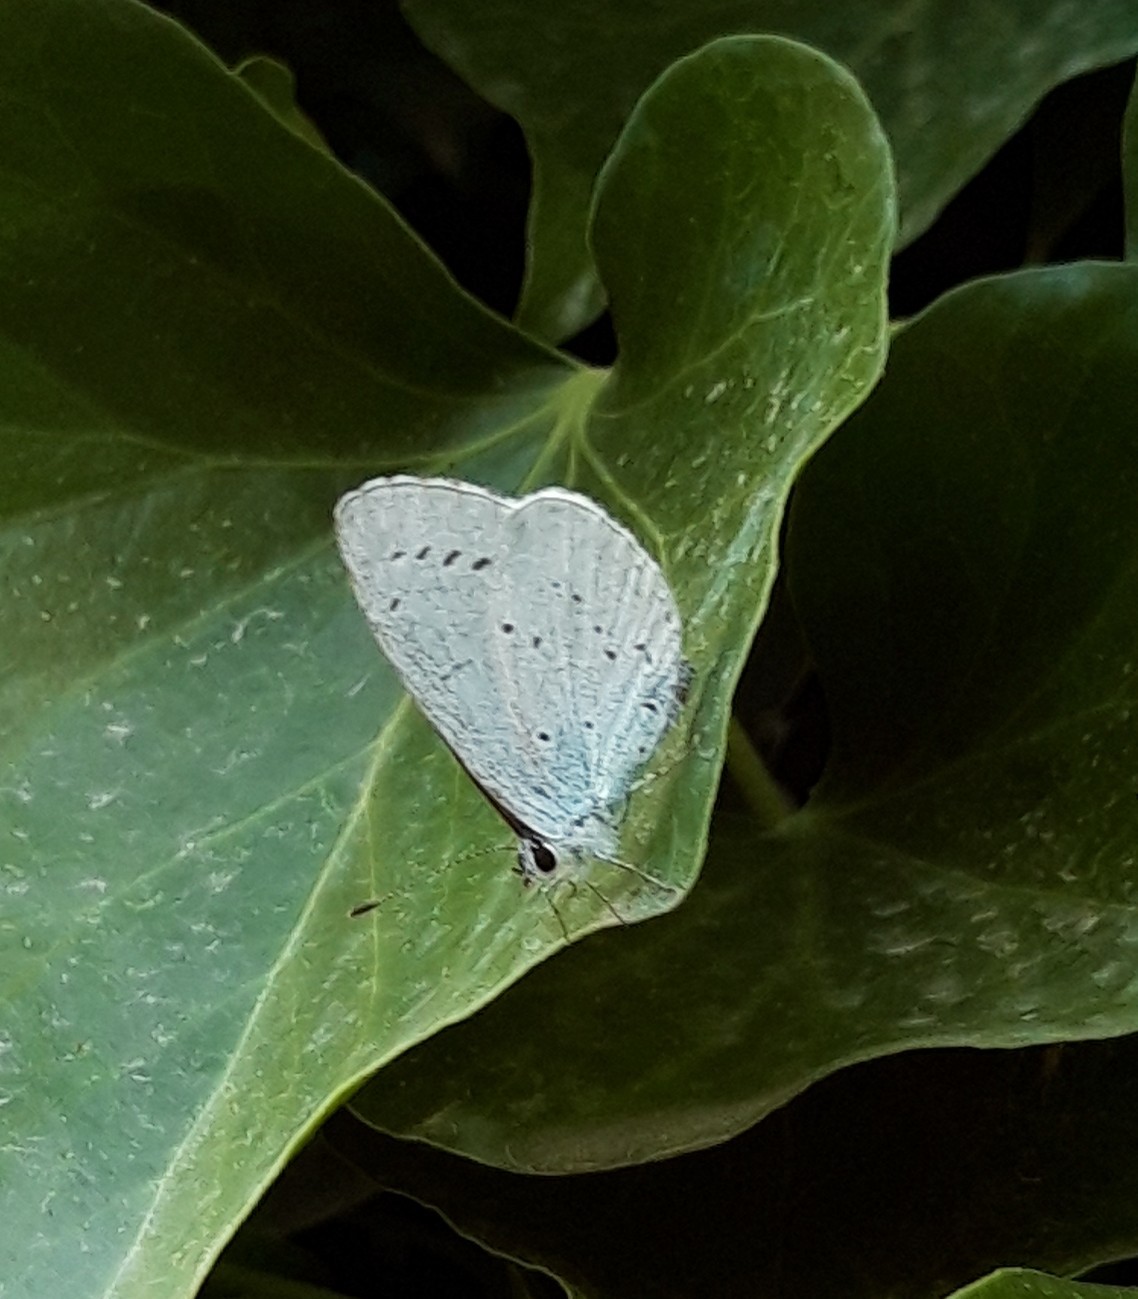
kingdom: Animalia
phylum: Arthropoda
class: Insecta
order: Lepidoptera
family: Lycaenidae
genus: Celastrina
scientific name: Celastrina argiolus
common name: Holly blue
